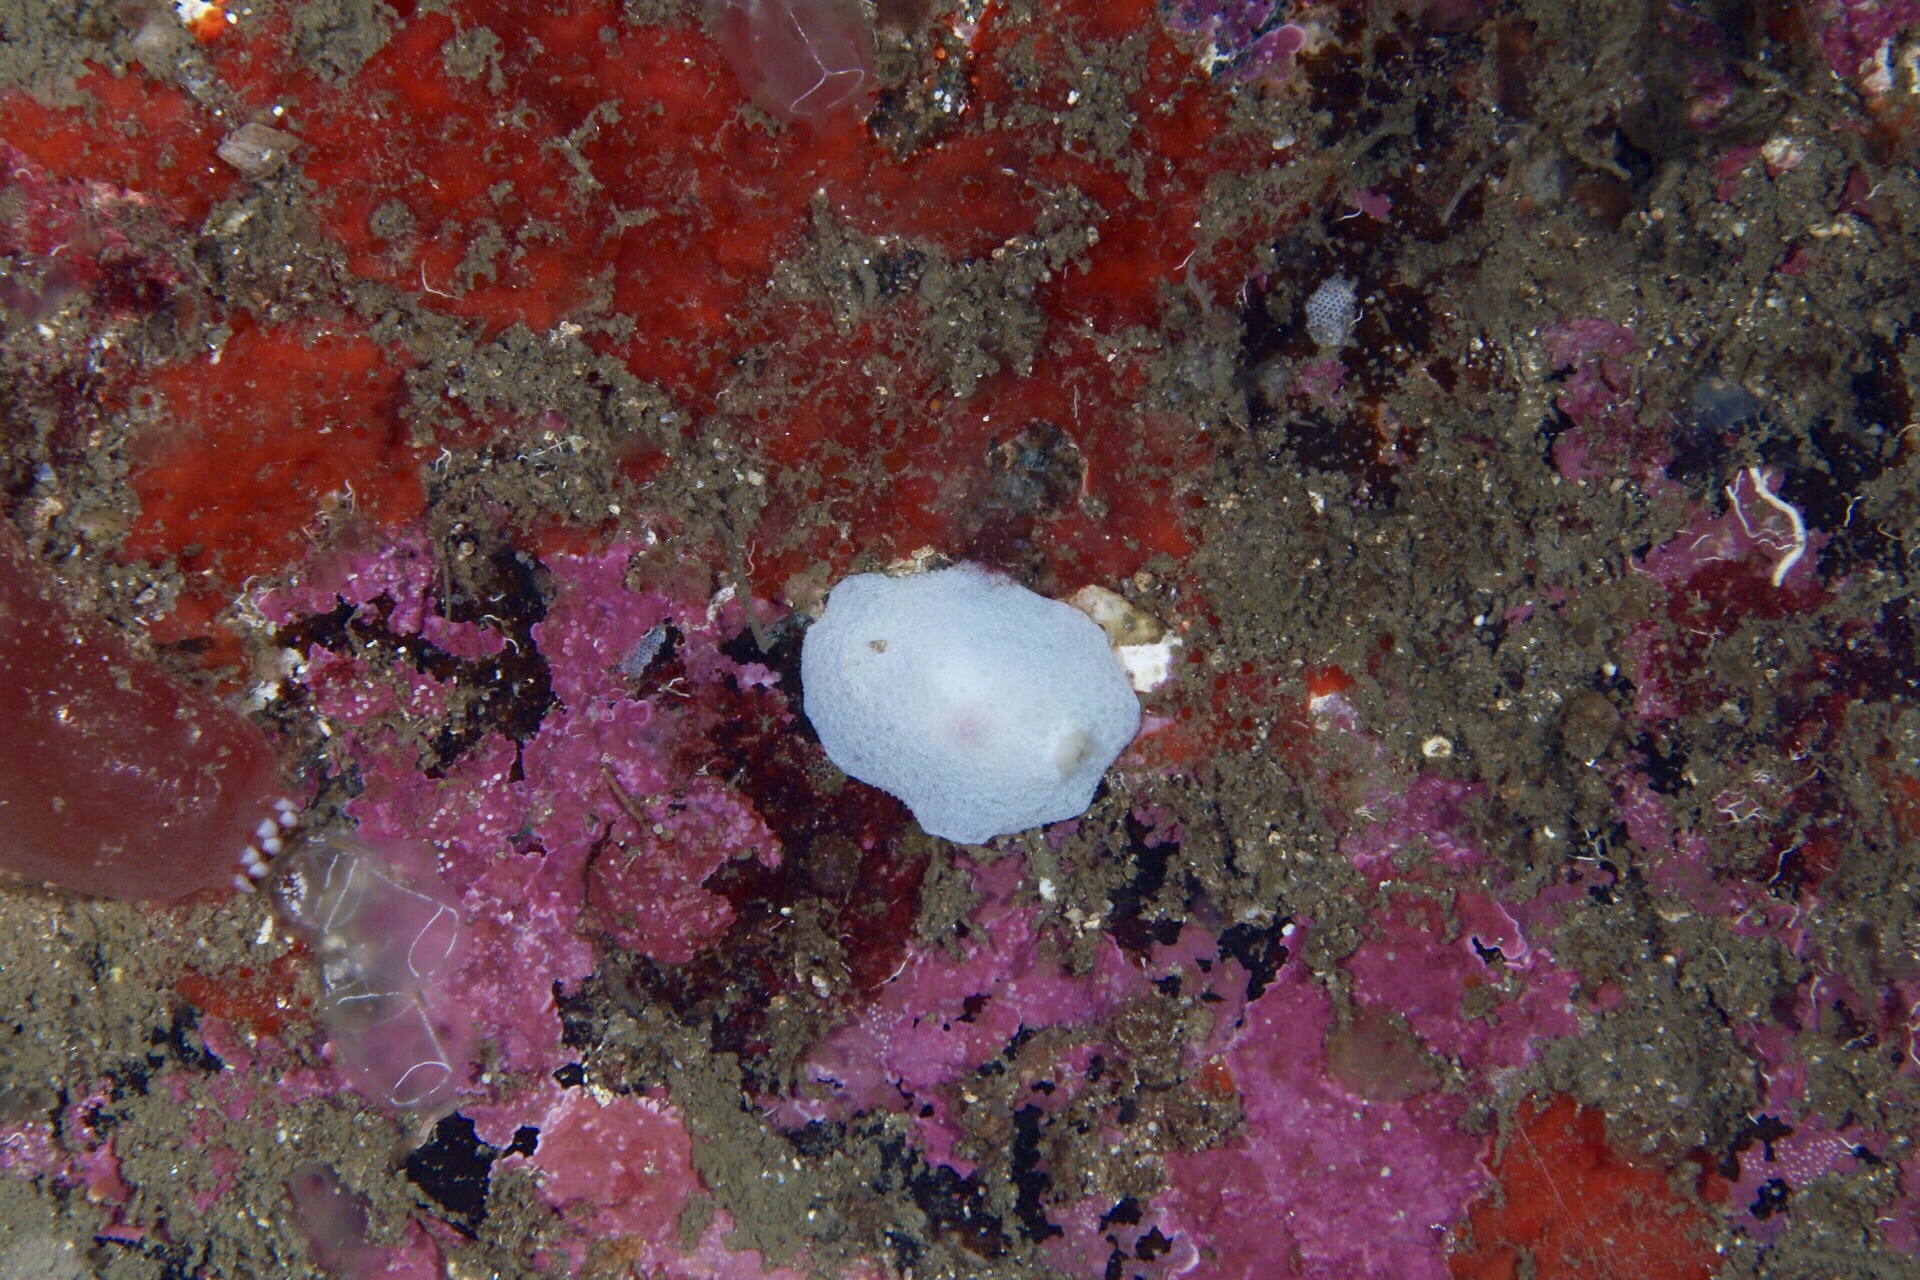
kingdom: Animalia
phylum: Mollusca
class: Gastropoda
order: Nudibranchia
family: Cadlinidae
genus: Aldisa
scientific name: Aldisa zetlandica
